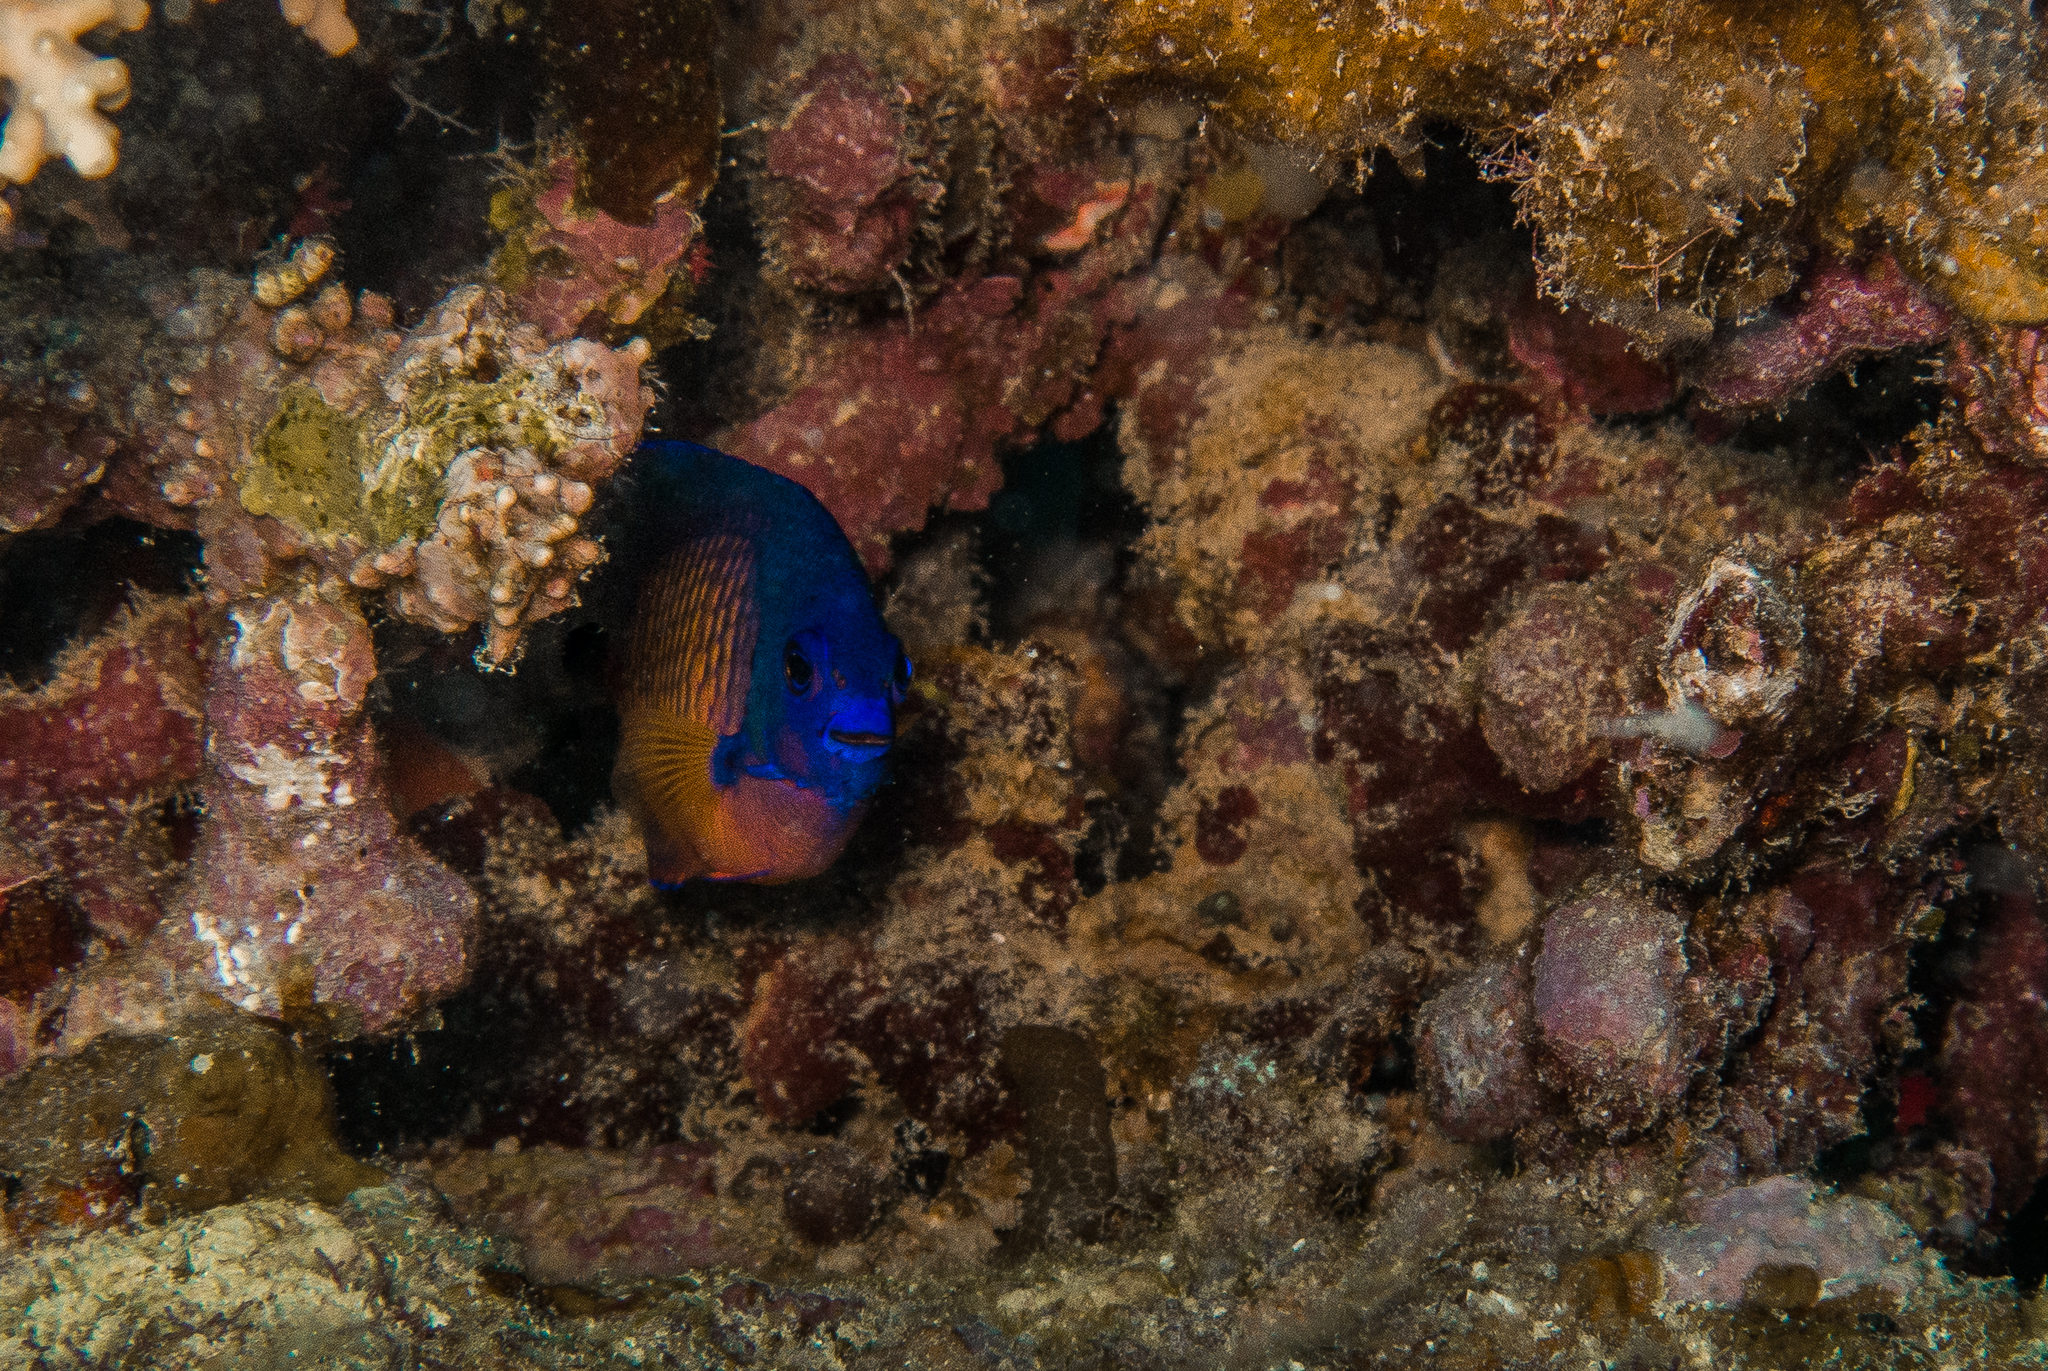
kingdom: Animalia
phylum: Chordata
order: Perciformes
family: Pomacanthidae
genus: Centropyge
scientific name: Centropyge bispinosa
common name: Coral beauty
